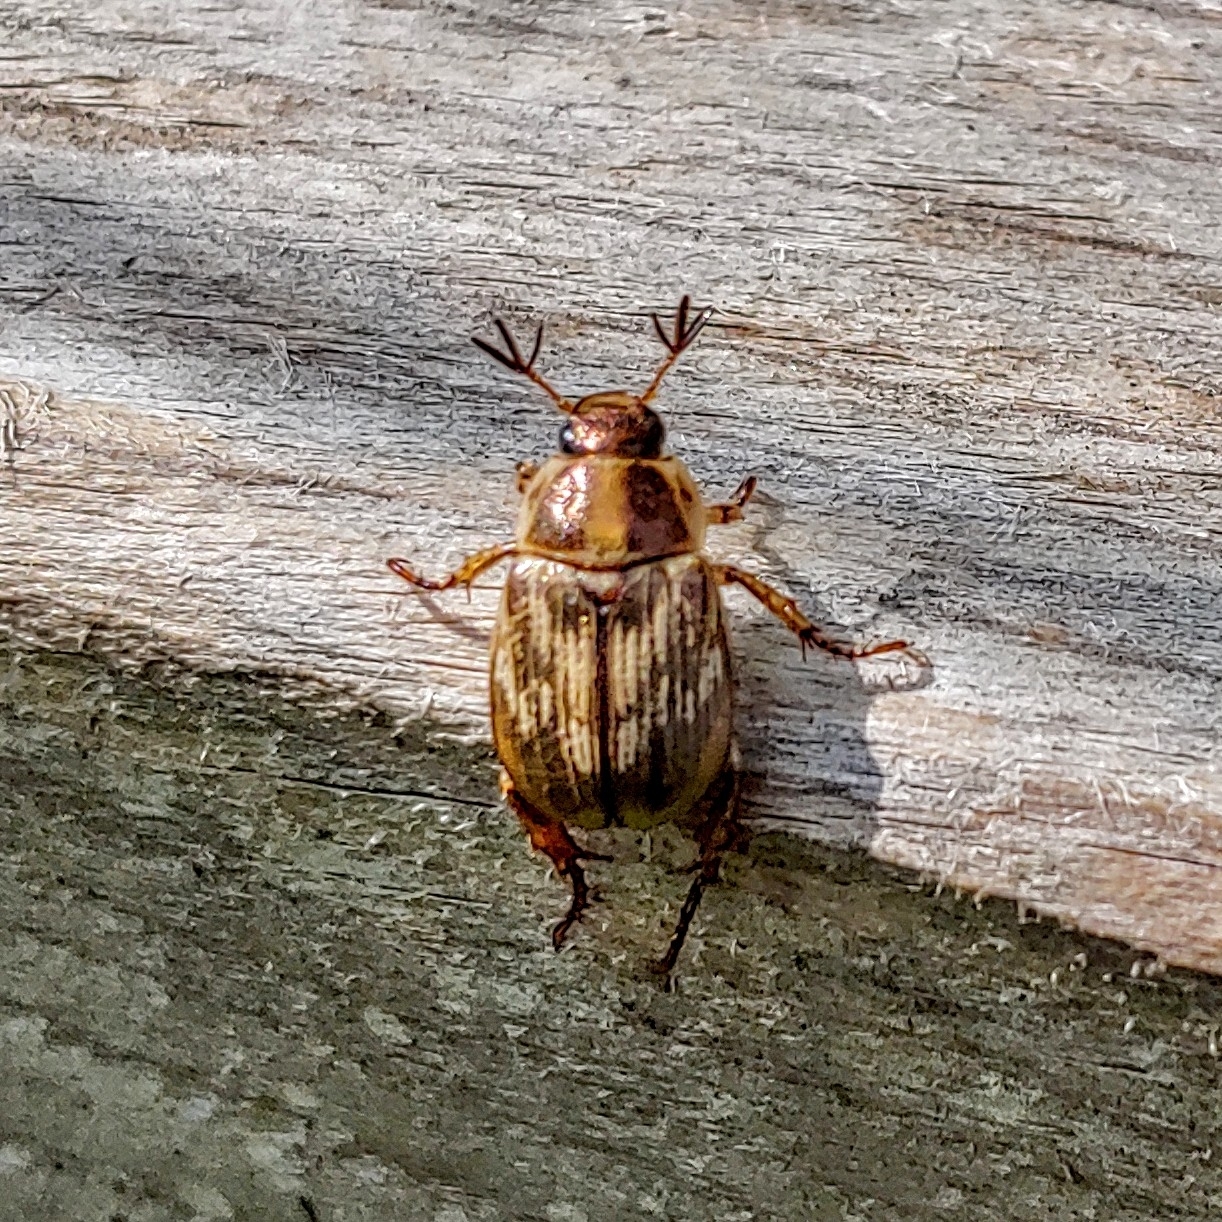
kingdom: Animalia
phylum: Arthropoda
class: Insecta
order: Coleoptera
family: Scarabaeidae
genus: Exomala
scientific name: Exomala orientalis
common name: Oriental beetle
